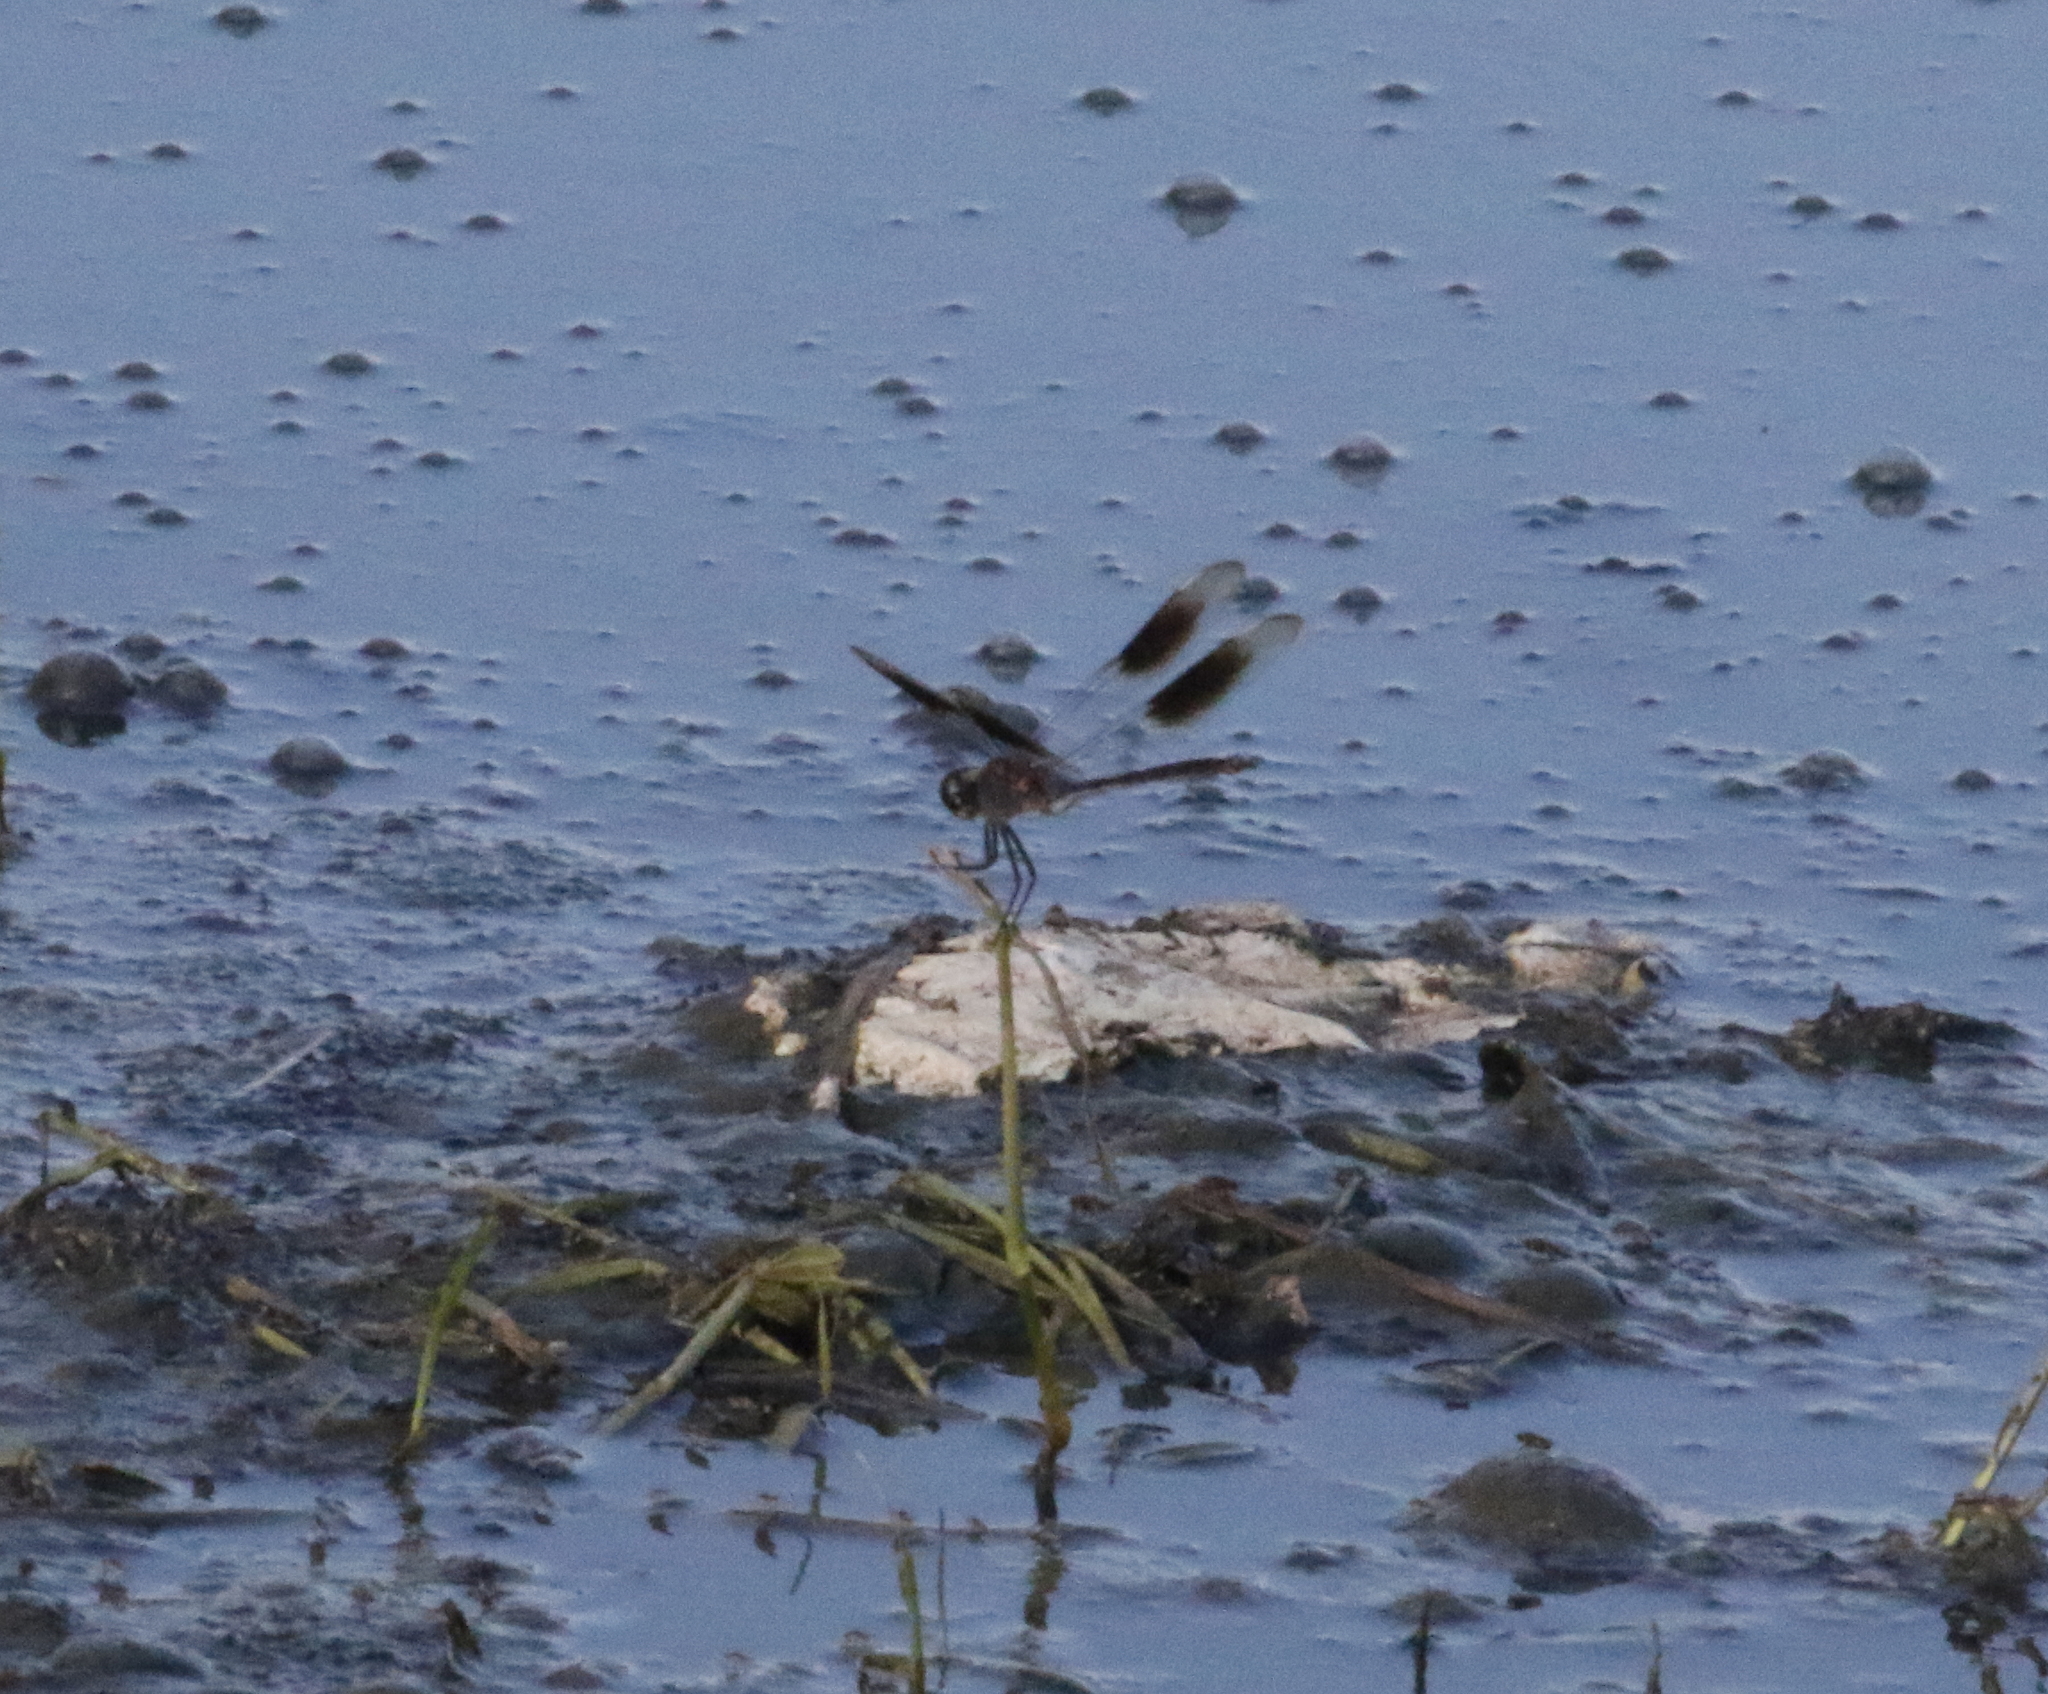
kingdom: Animalia
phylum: Arthropoda
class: Insecta
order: Odonata
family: Libellulidae
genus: Brachymesia
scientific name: Brachymesia gravida
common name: Four-spotted pennant
